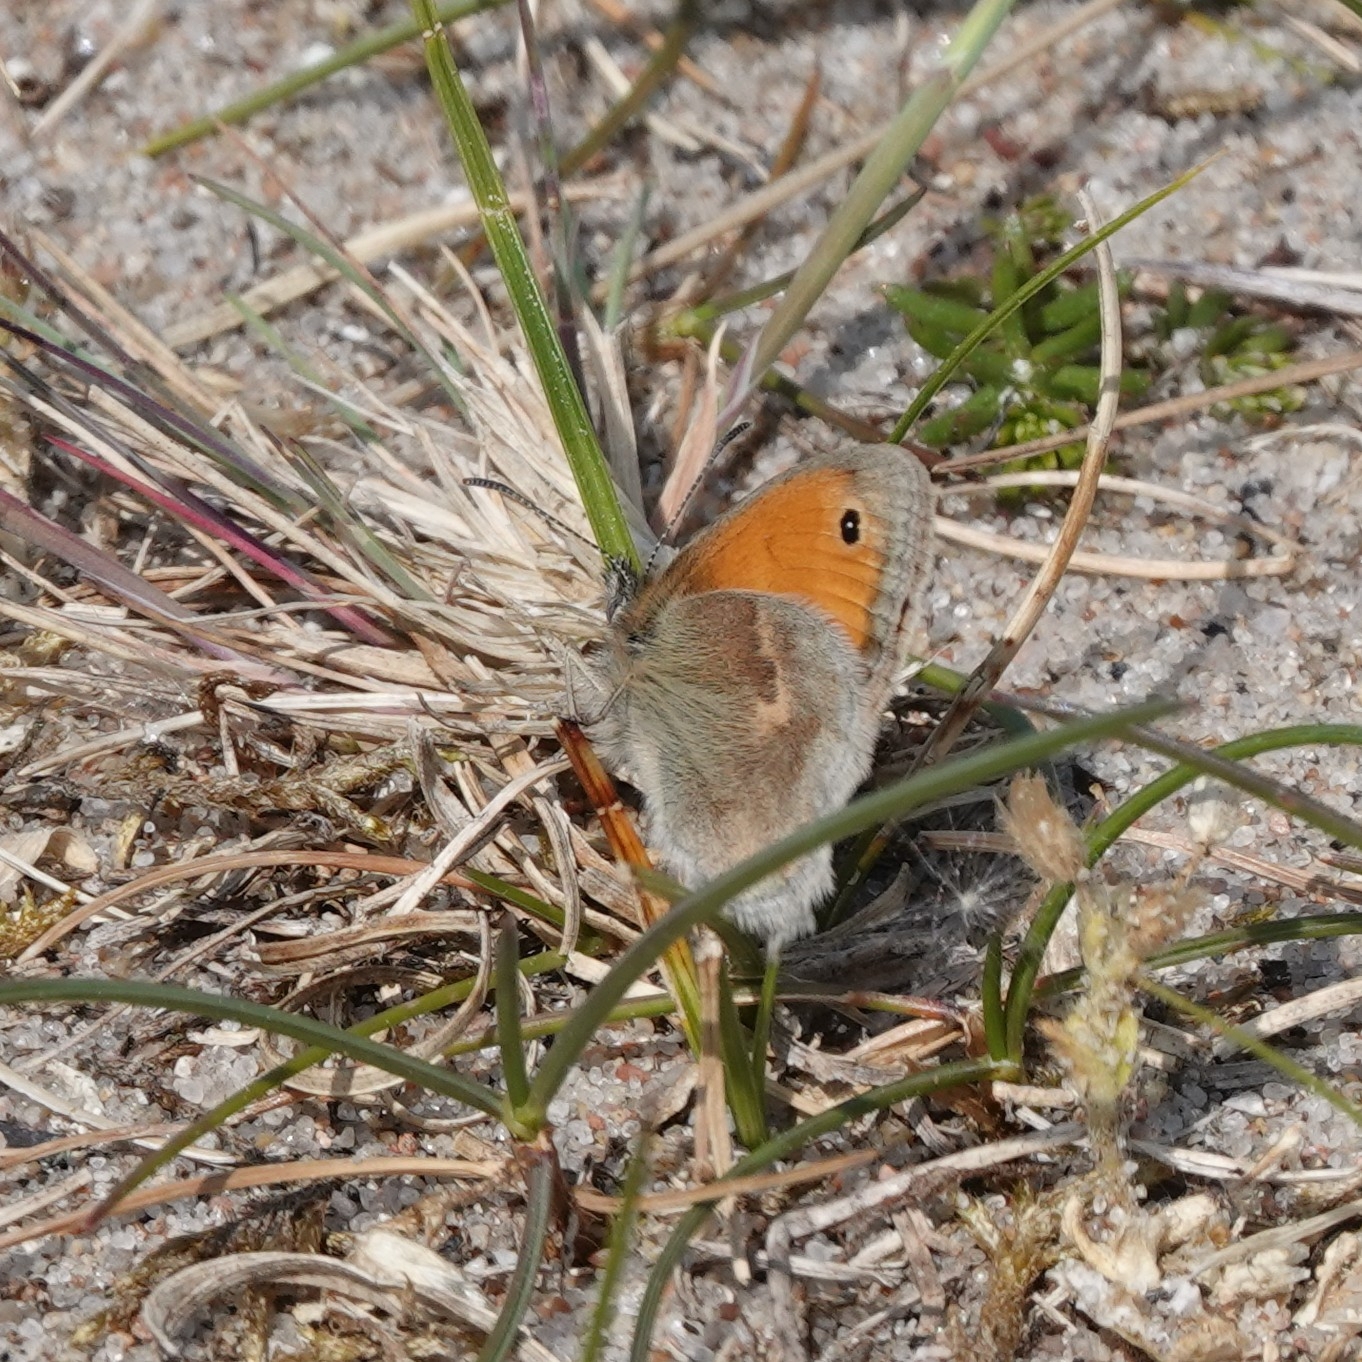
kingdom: Animalia
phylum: Arthropoda
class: Insecta
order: Lepidoptera
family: Nymphalidae
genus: Coenonympha
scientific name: Coenonympha pamphilus
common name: Small heath
